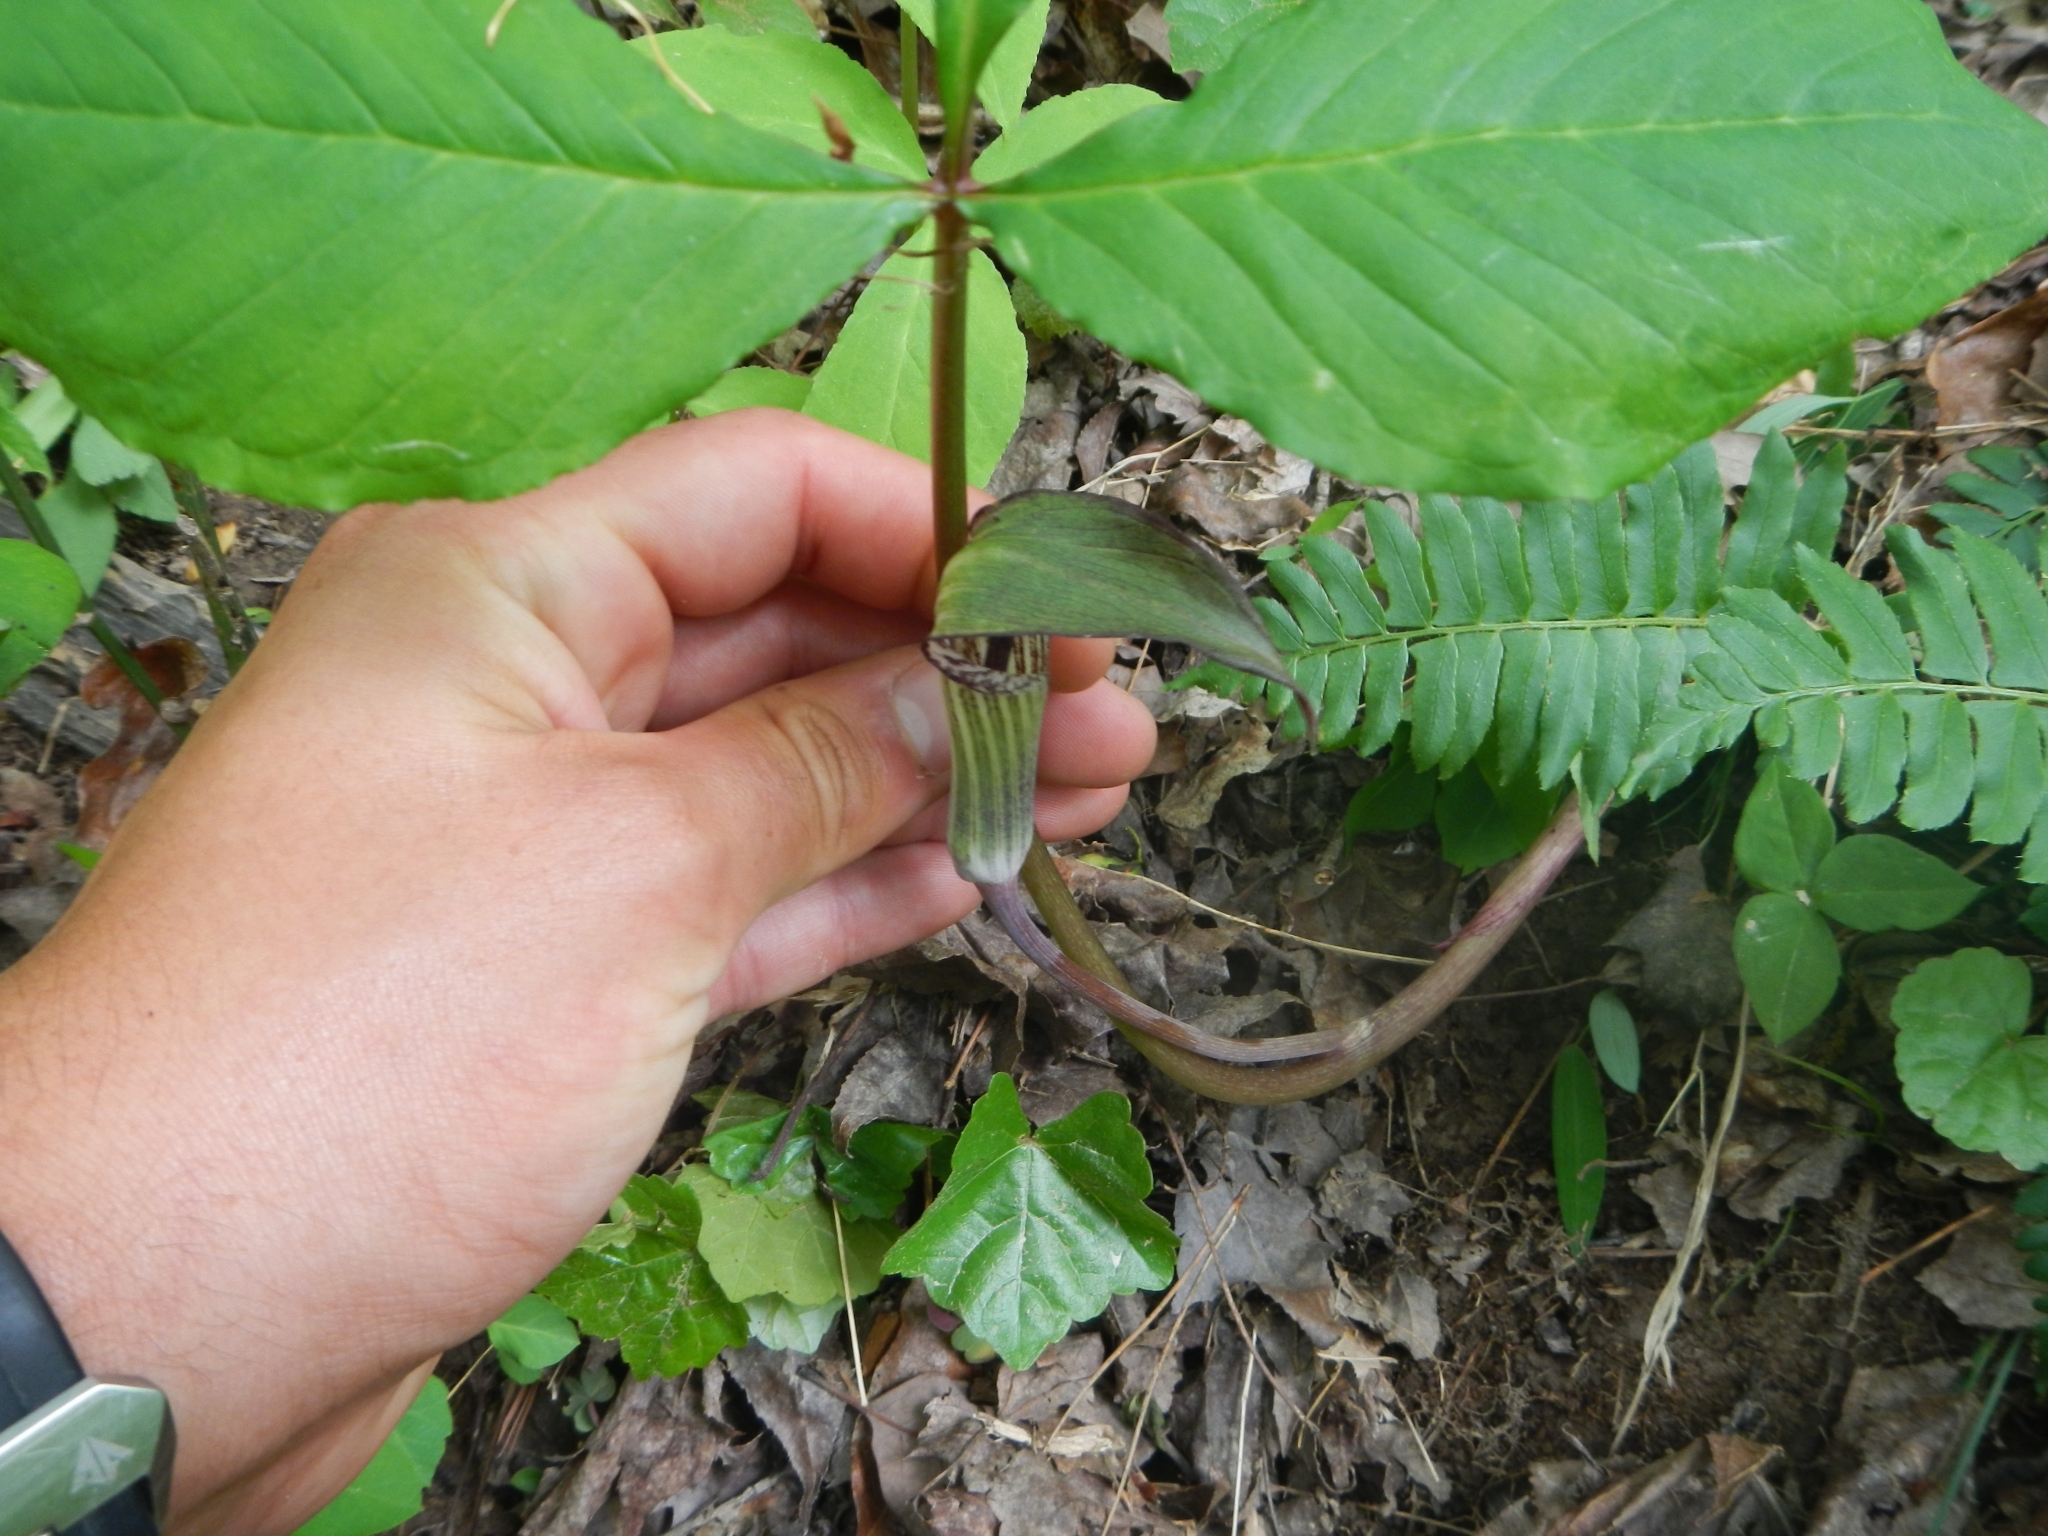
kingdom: Plantae
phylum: Tracheophyta
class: Liliopsida
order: Alismatales
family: Araceae
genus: Arisaema
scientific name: Arisaema triphyllum
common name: Jack-in-the-pulpit
